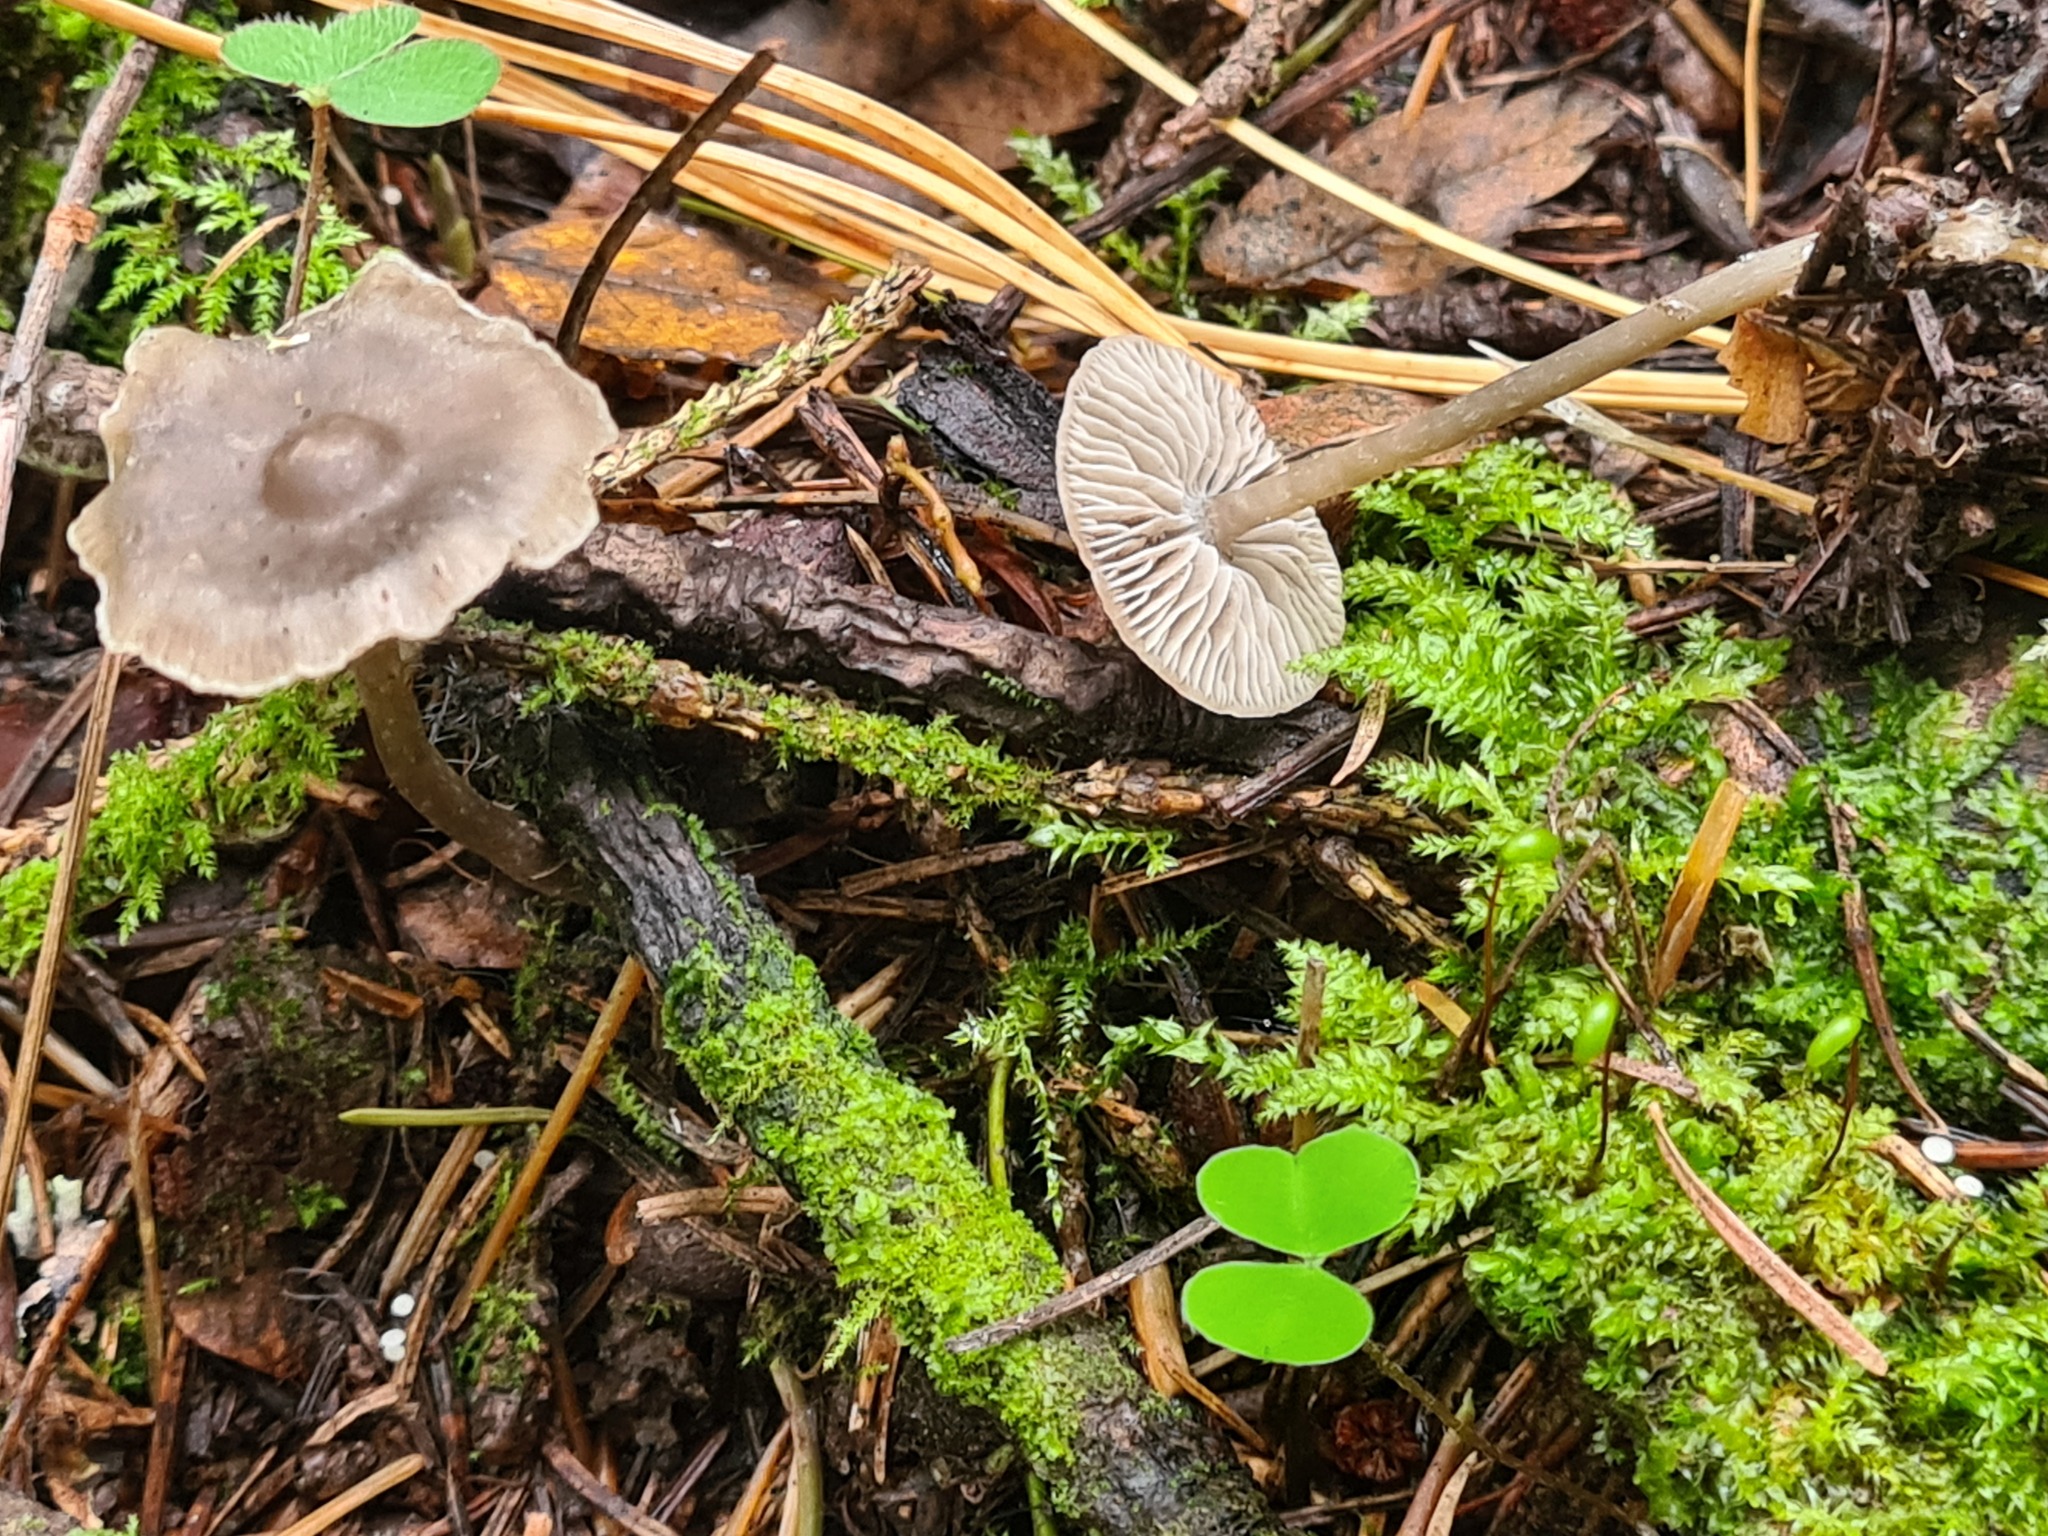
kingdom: Fungi
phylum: Basidiomycota
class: Agaricomycetes
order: Agaricales
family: Lyophyllaceae
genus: Tephrocybe
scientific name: Tephrocybe rancida
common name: Rancid greyling
